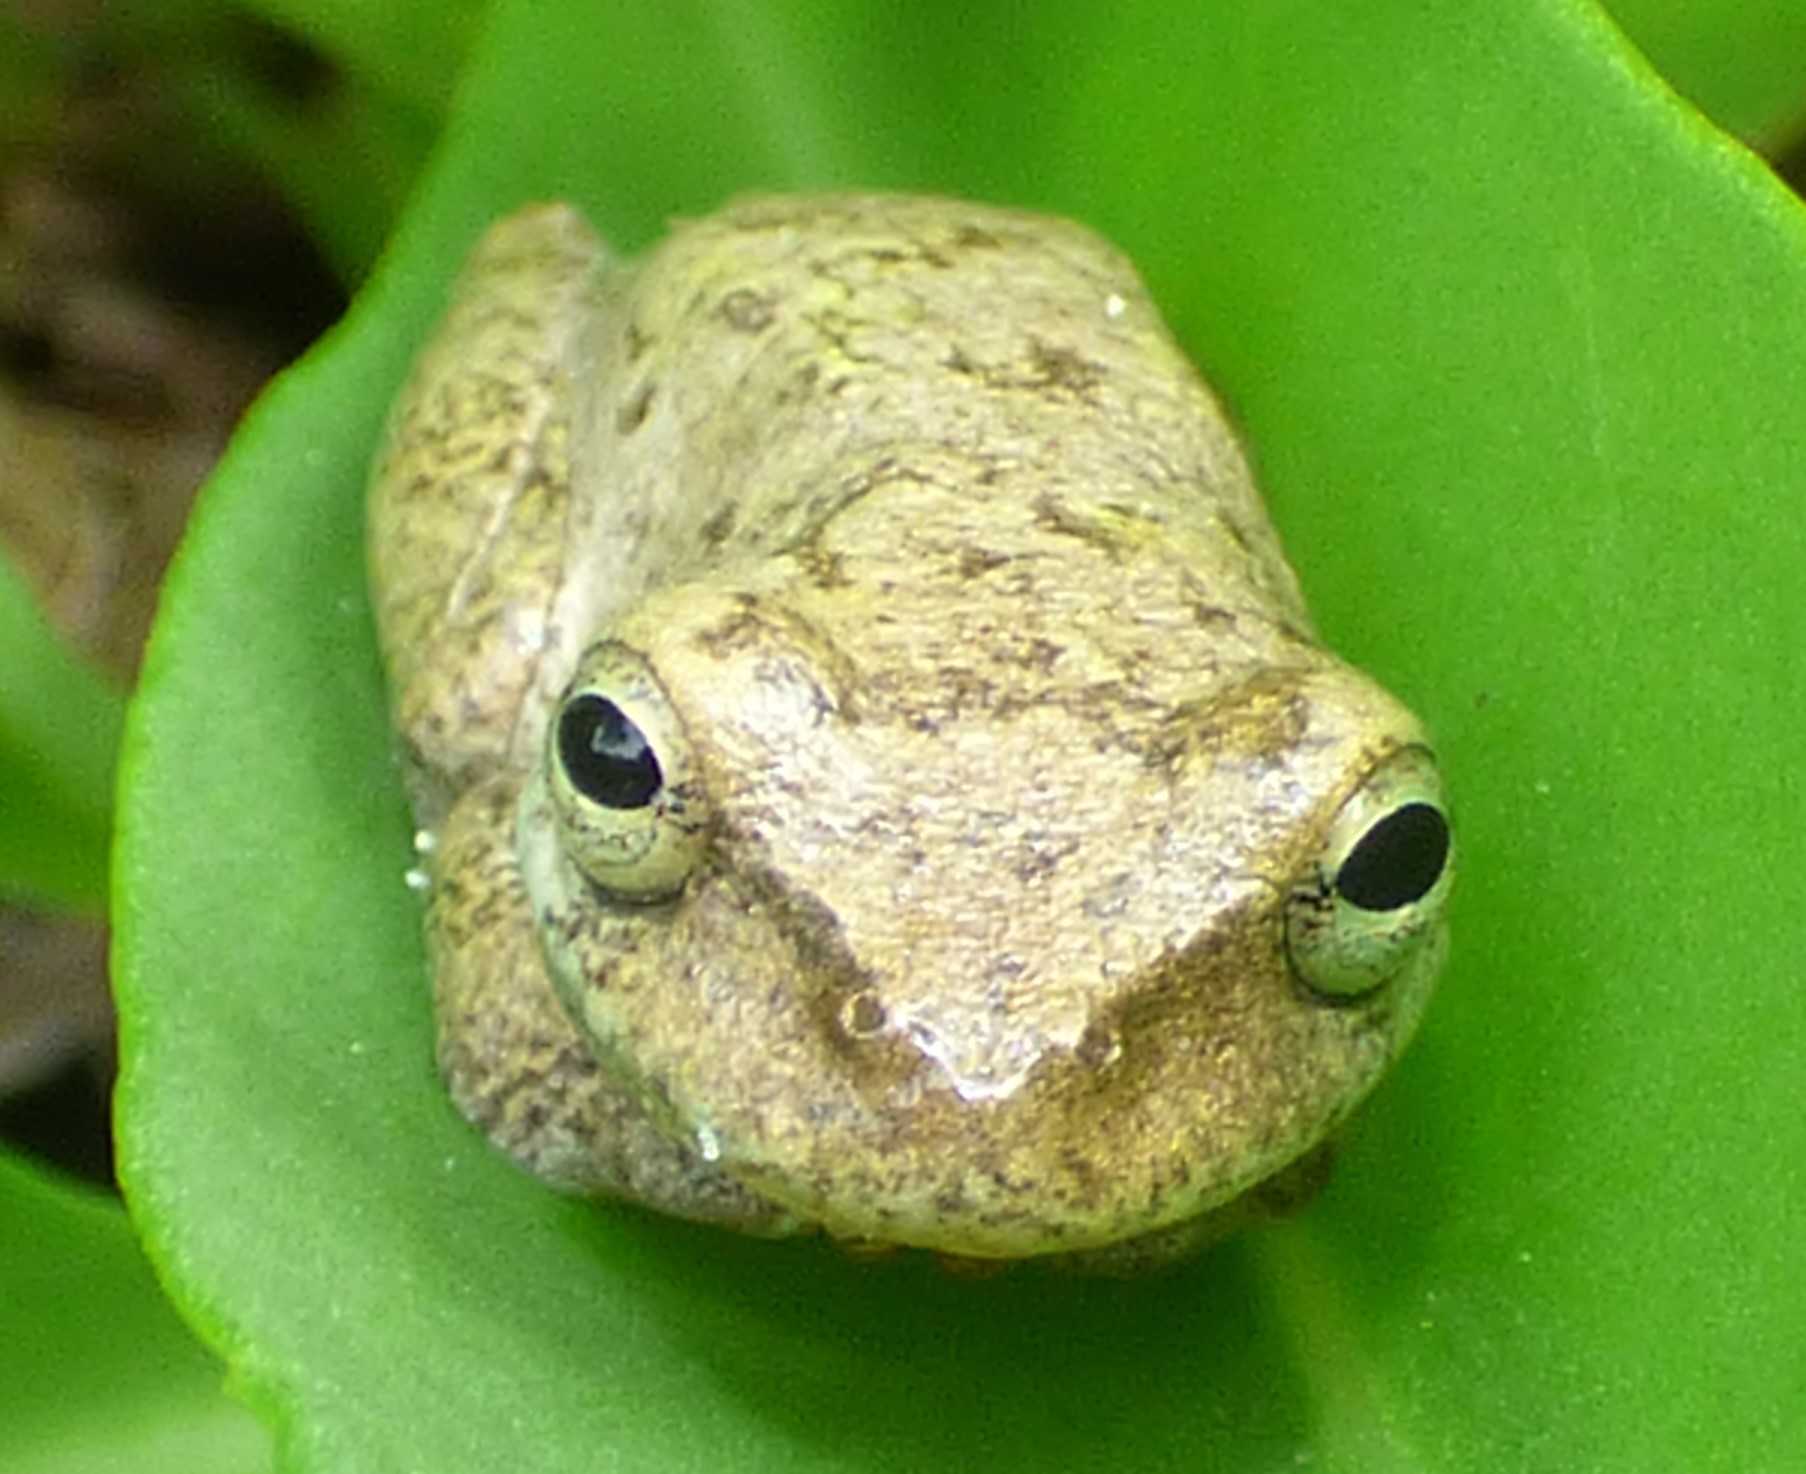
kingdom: Animalia
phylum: Chordata
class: Amphibia
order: Anura
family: Hylidae
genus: Dryophytes
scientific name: Dryophytes squirellus
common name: Squirrel treefrog
